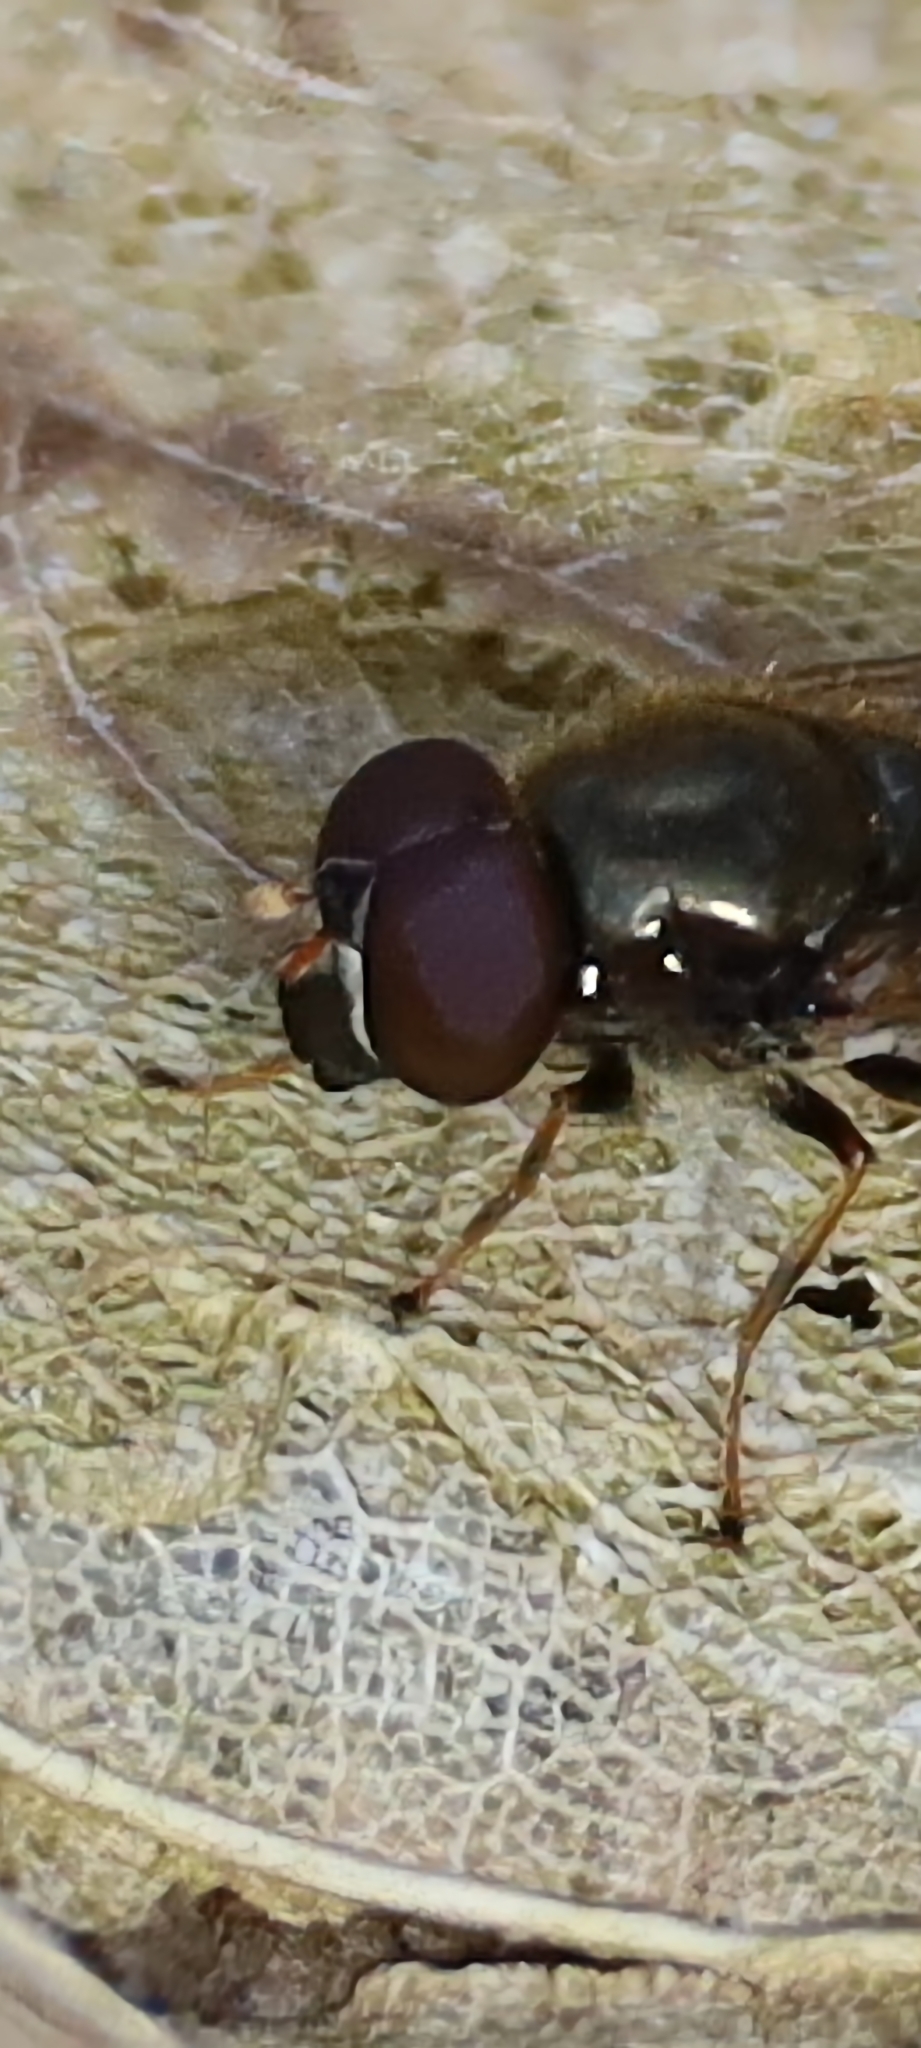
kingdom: Animalia
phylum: Arthropoda
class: Insecta
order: Diptera
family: Syrphidae
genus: Cheilosia
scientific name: Cheilosia pagana
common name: Hover fly
